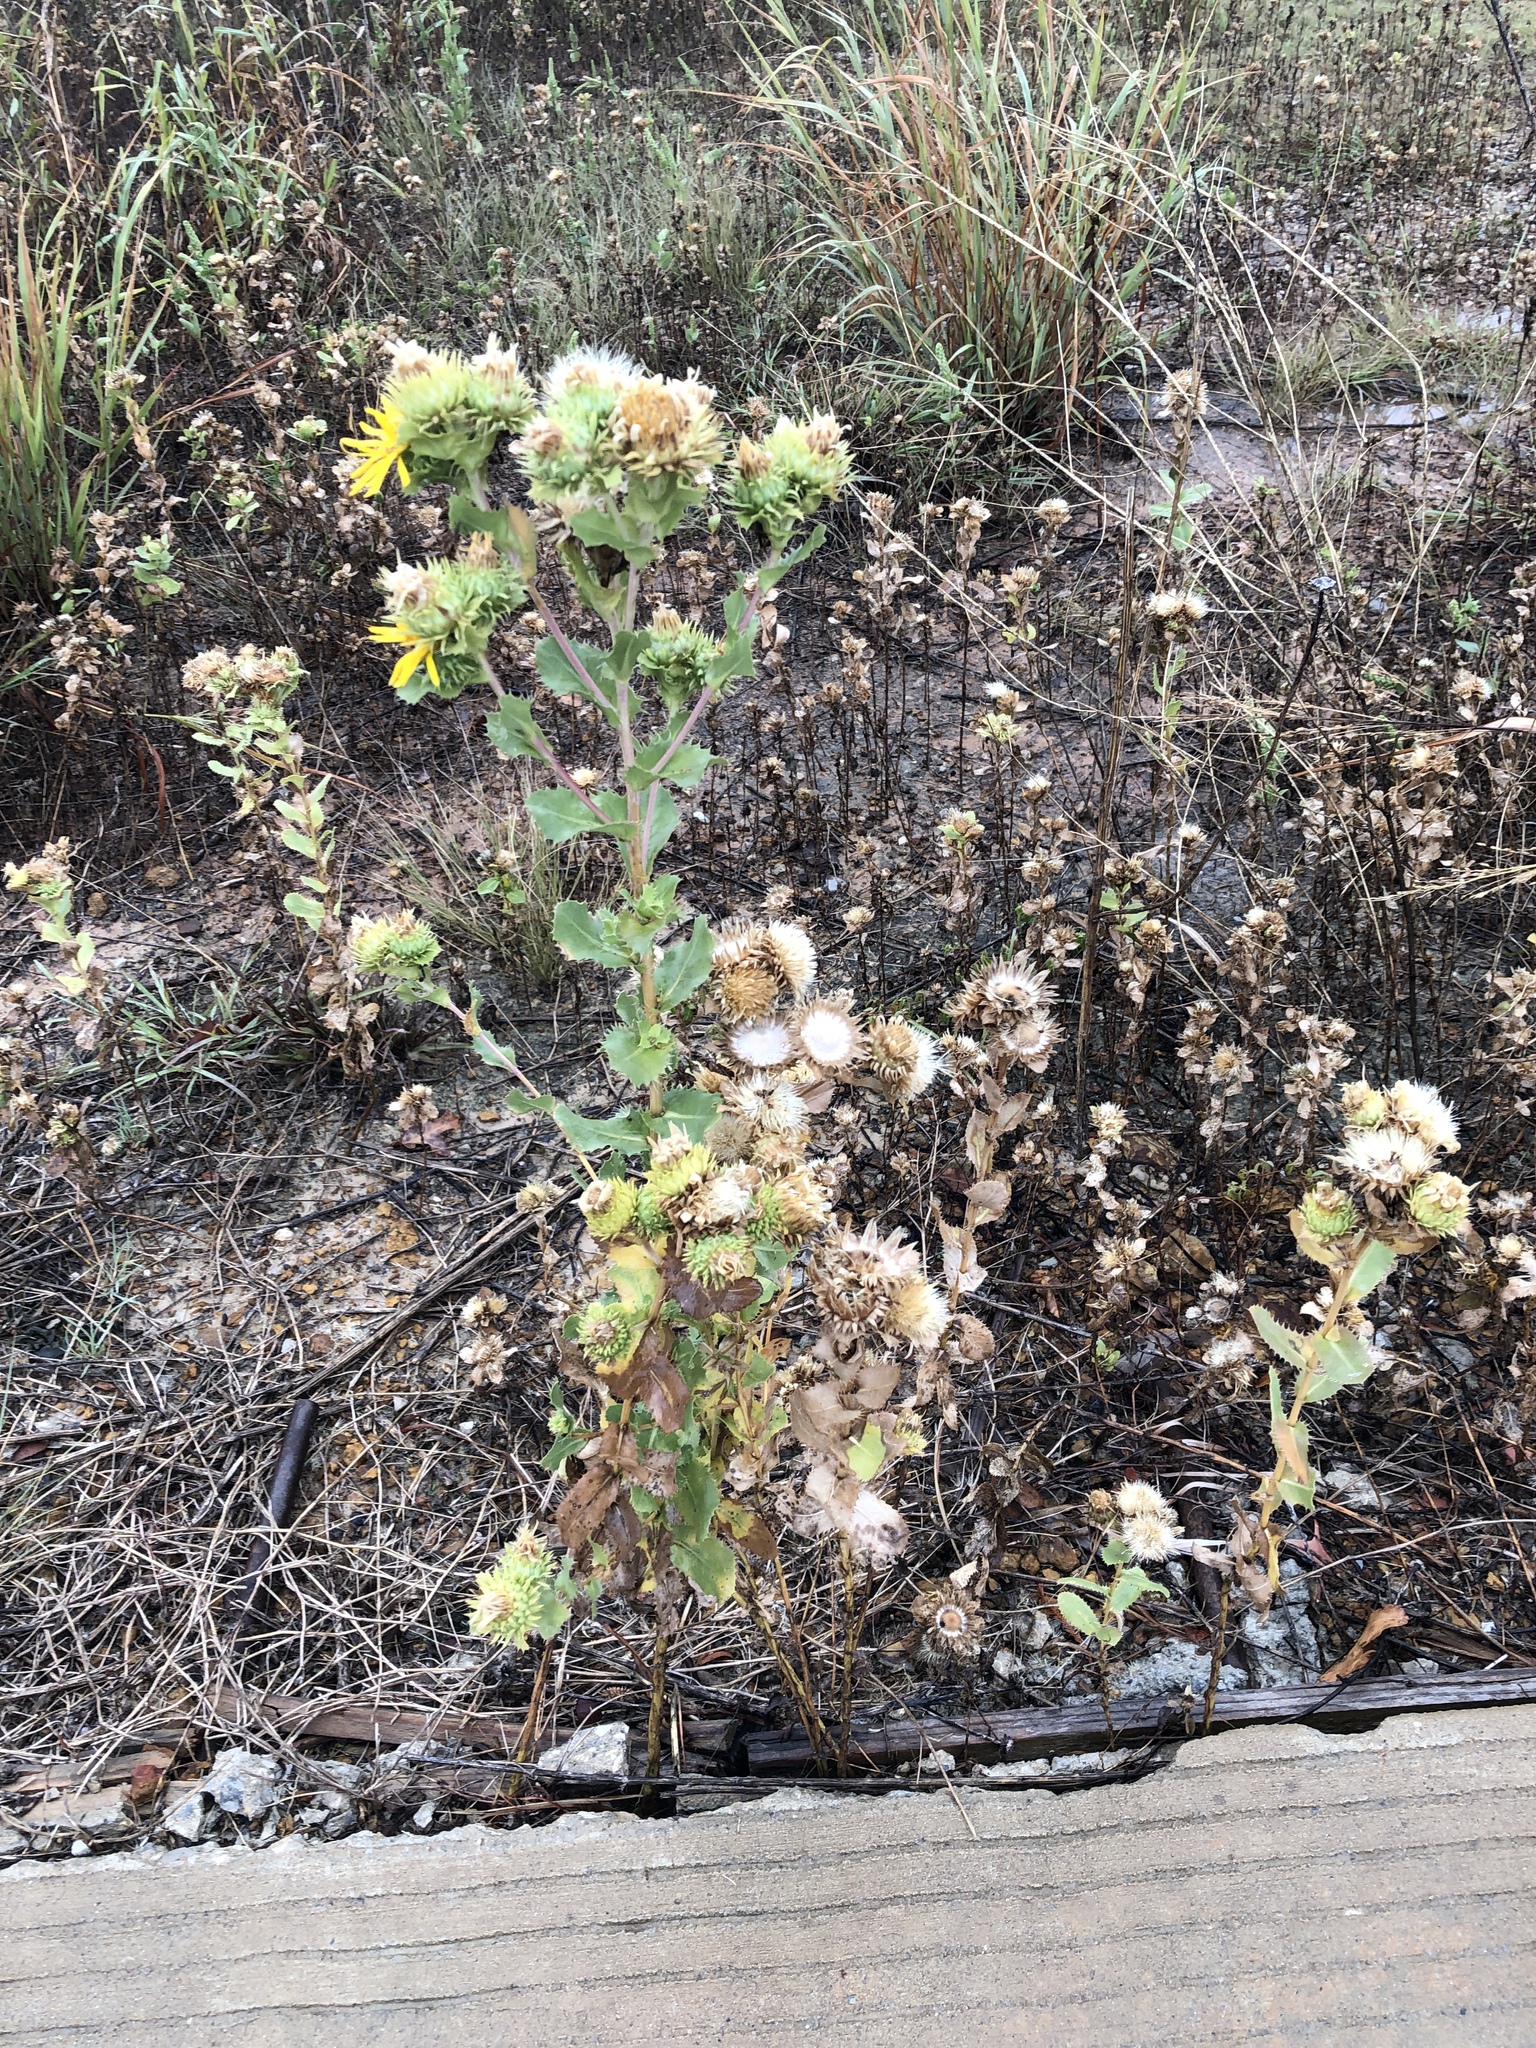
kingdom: Plantae
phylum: Tracheophyta
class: Magnoliopsida
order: Asterales
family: Asteraceae
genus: Grindelia
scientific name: Grindelia ciliata
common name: Goldenweed
